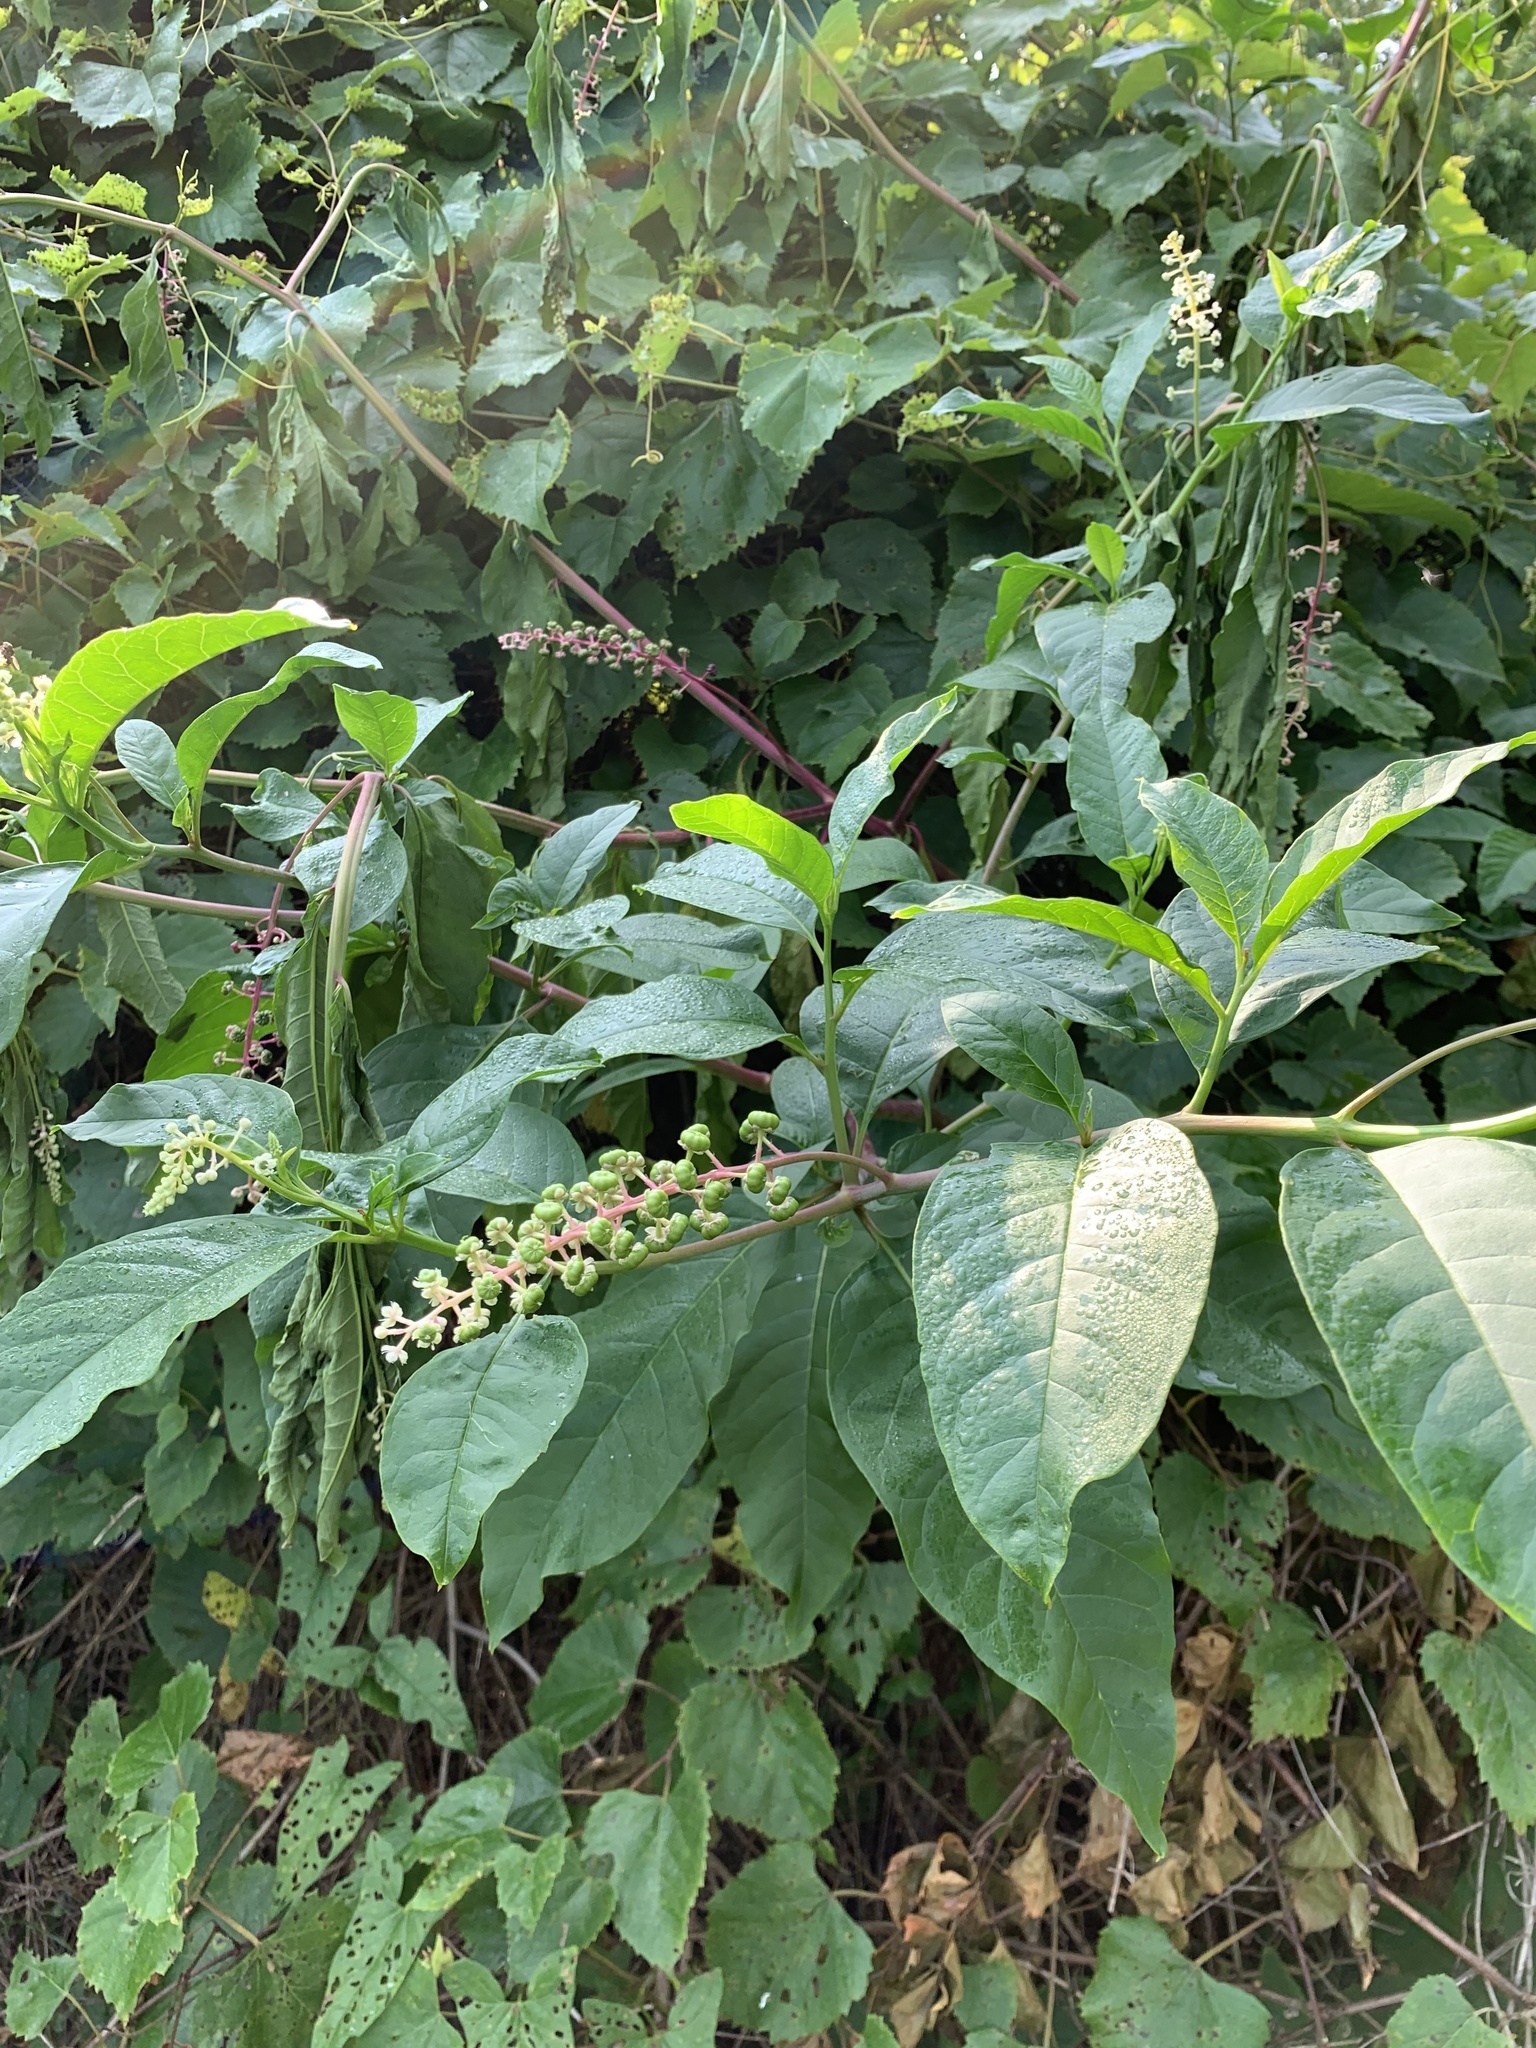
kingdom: Plantae
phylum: Tracheophyta
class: Magnoliopsida
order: Caryophyllales
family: Phytolaccaceae
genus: Phytolacca
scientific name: Phytolacca americana
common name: American pokeweed
